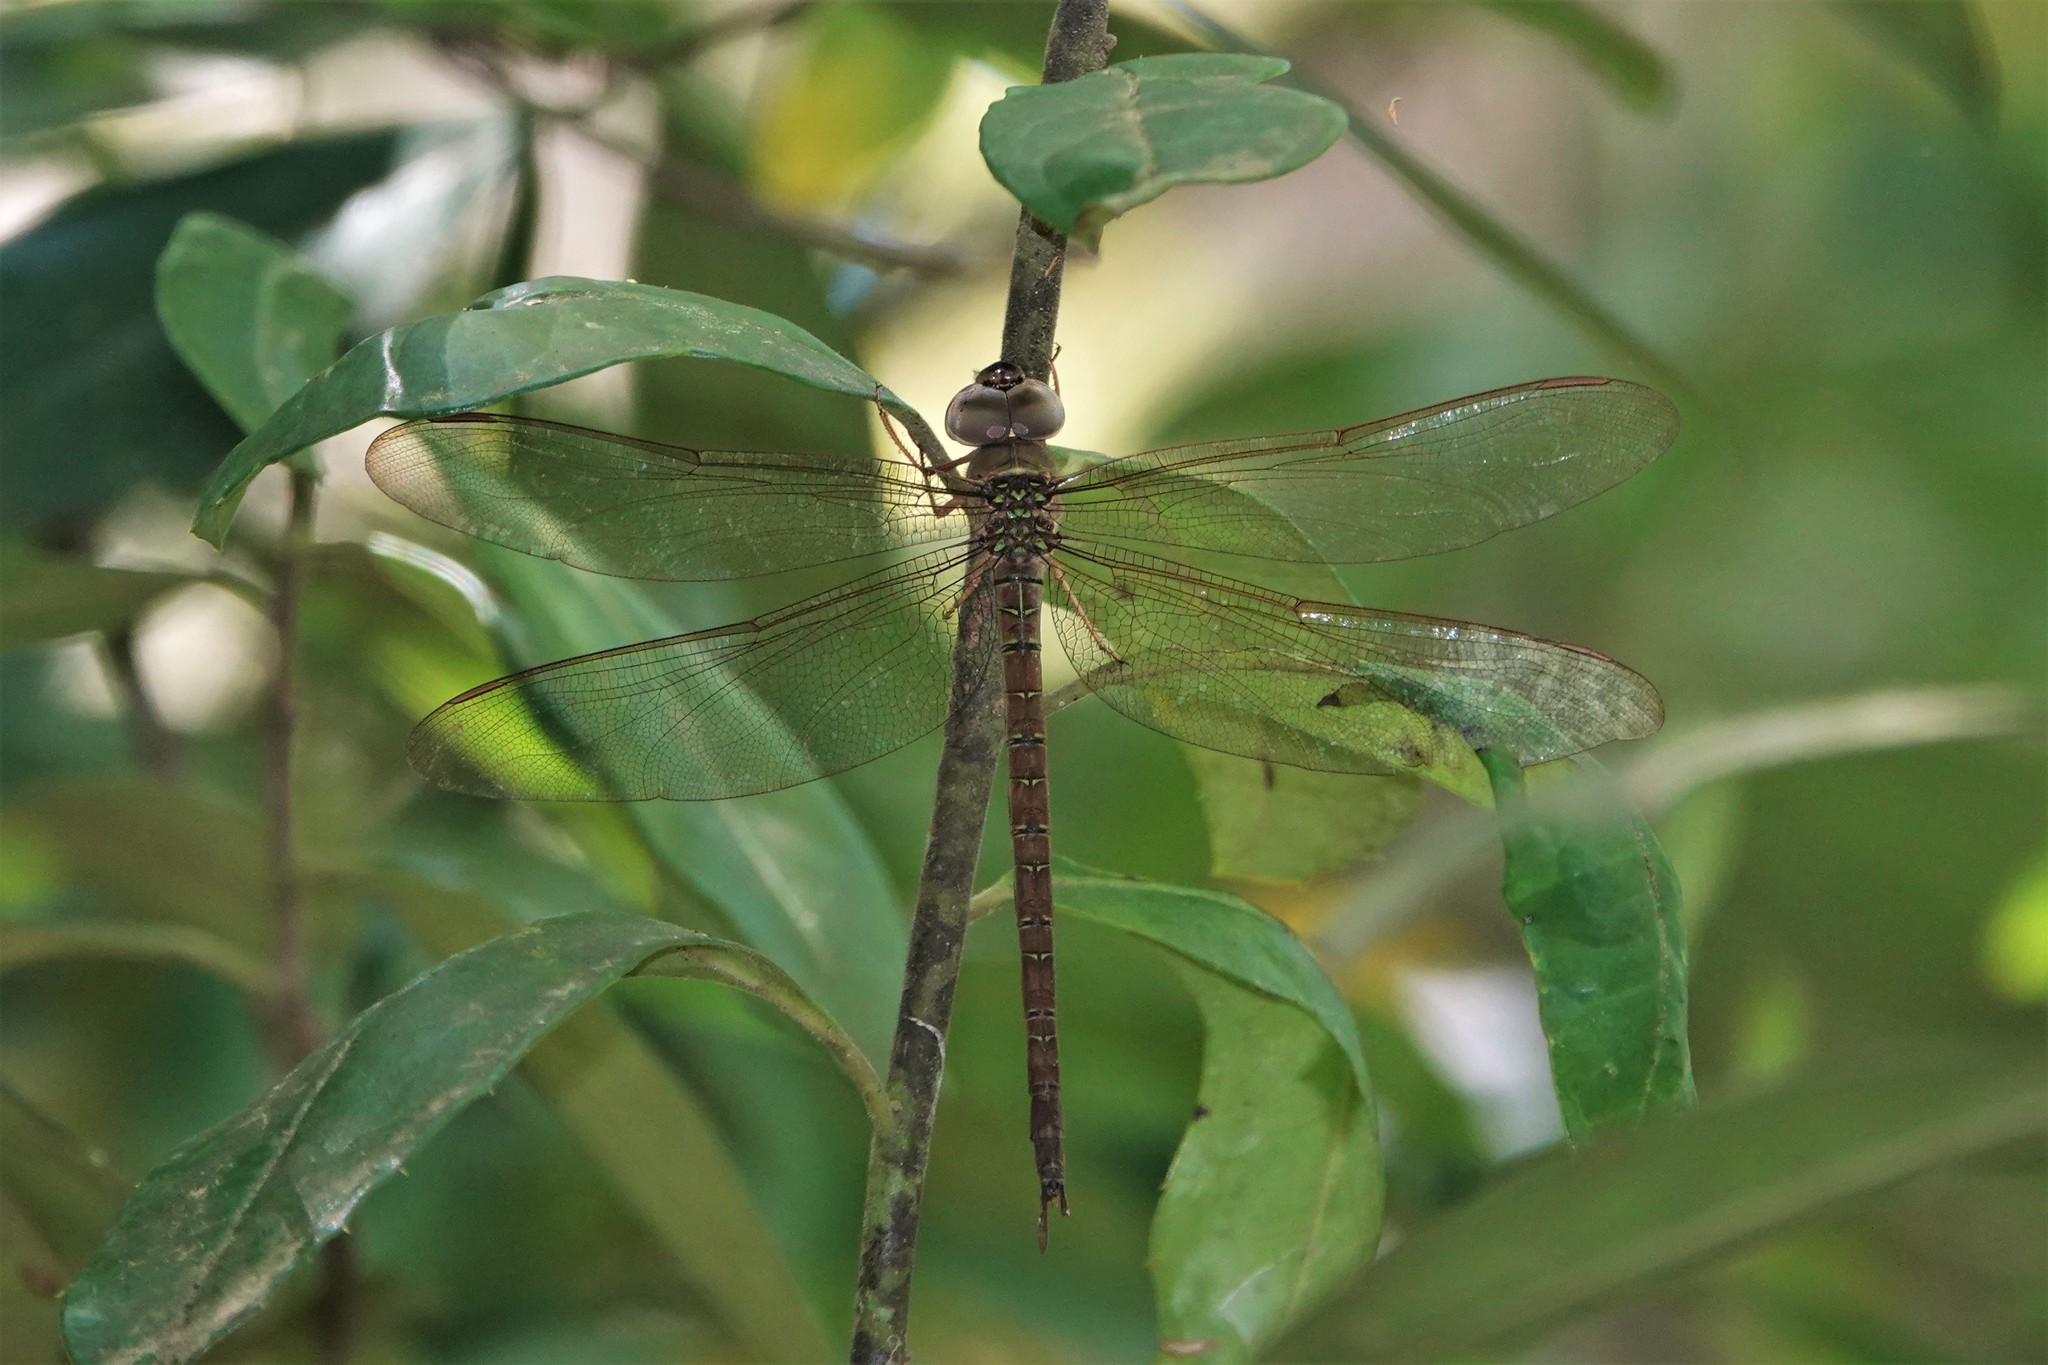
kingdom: Animalia
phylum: Arthropoda
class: Insecta
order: Odonata
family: Aeshnidae
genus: Gynacantha
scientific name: Gynacantha nervosa
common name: Twilight darner
